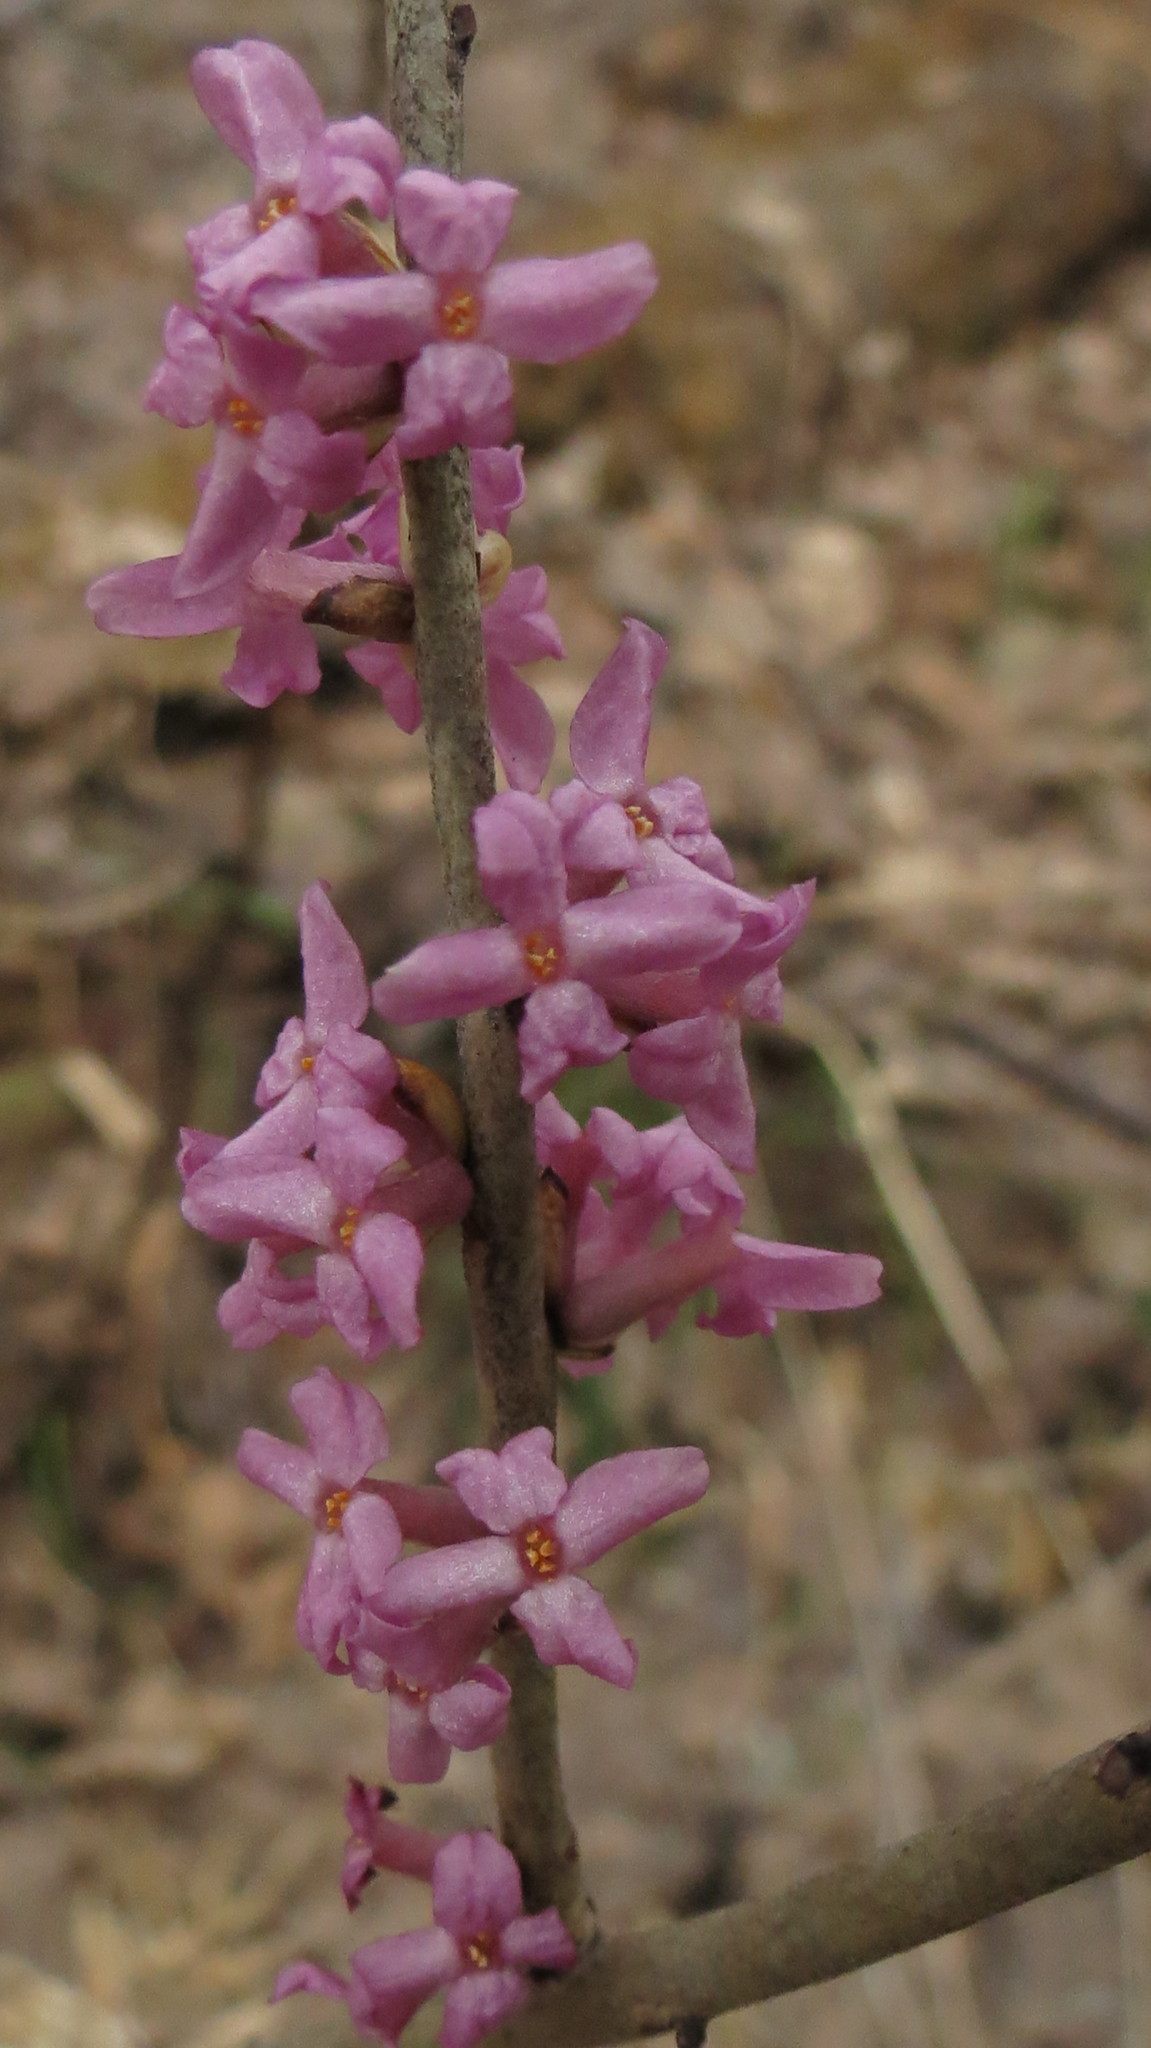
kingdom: Plantae
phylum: Tracheophyta
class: Magnoliopsida
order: Malvales
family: Thymelaeaceae
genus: Daphne
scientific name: Daphne mezereum
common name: Mezereon
